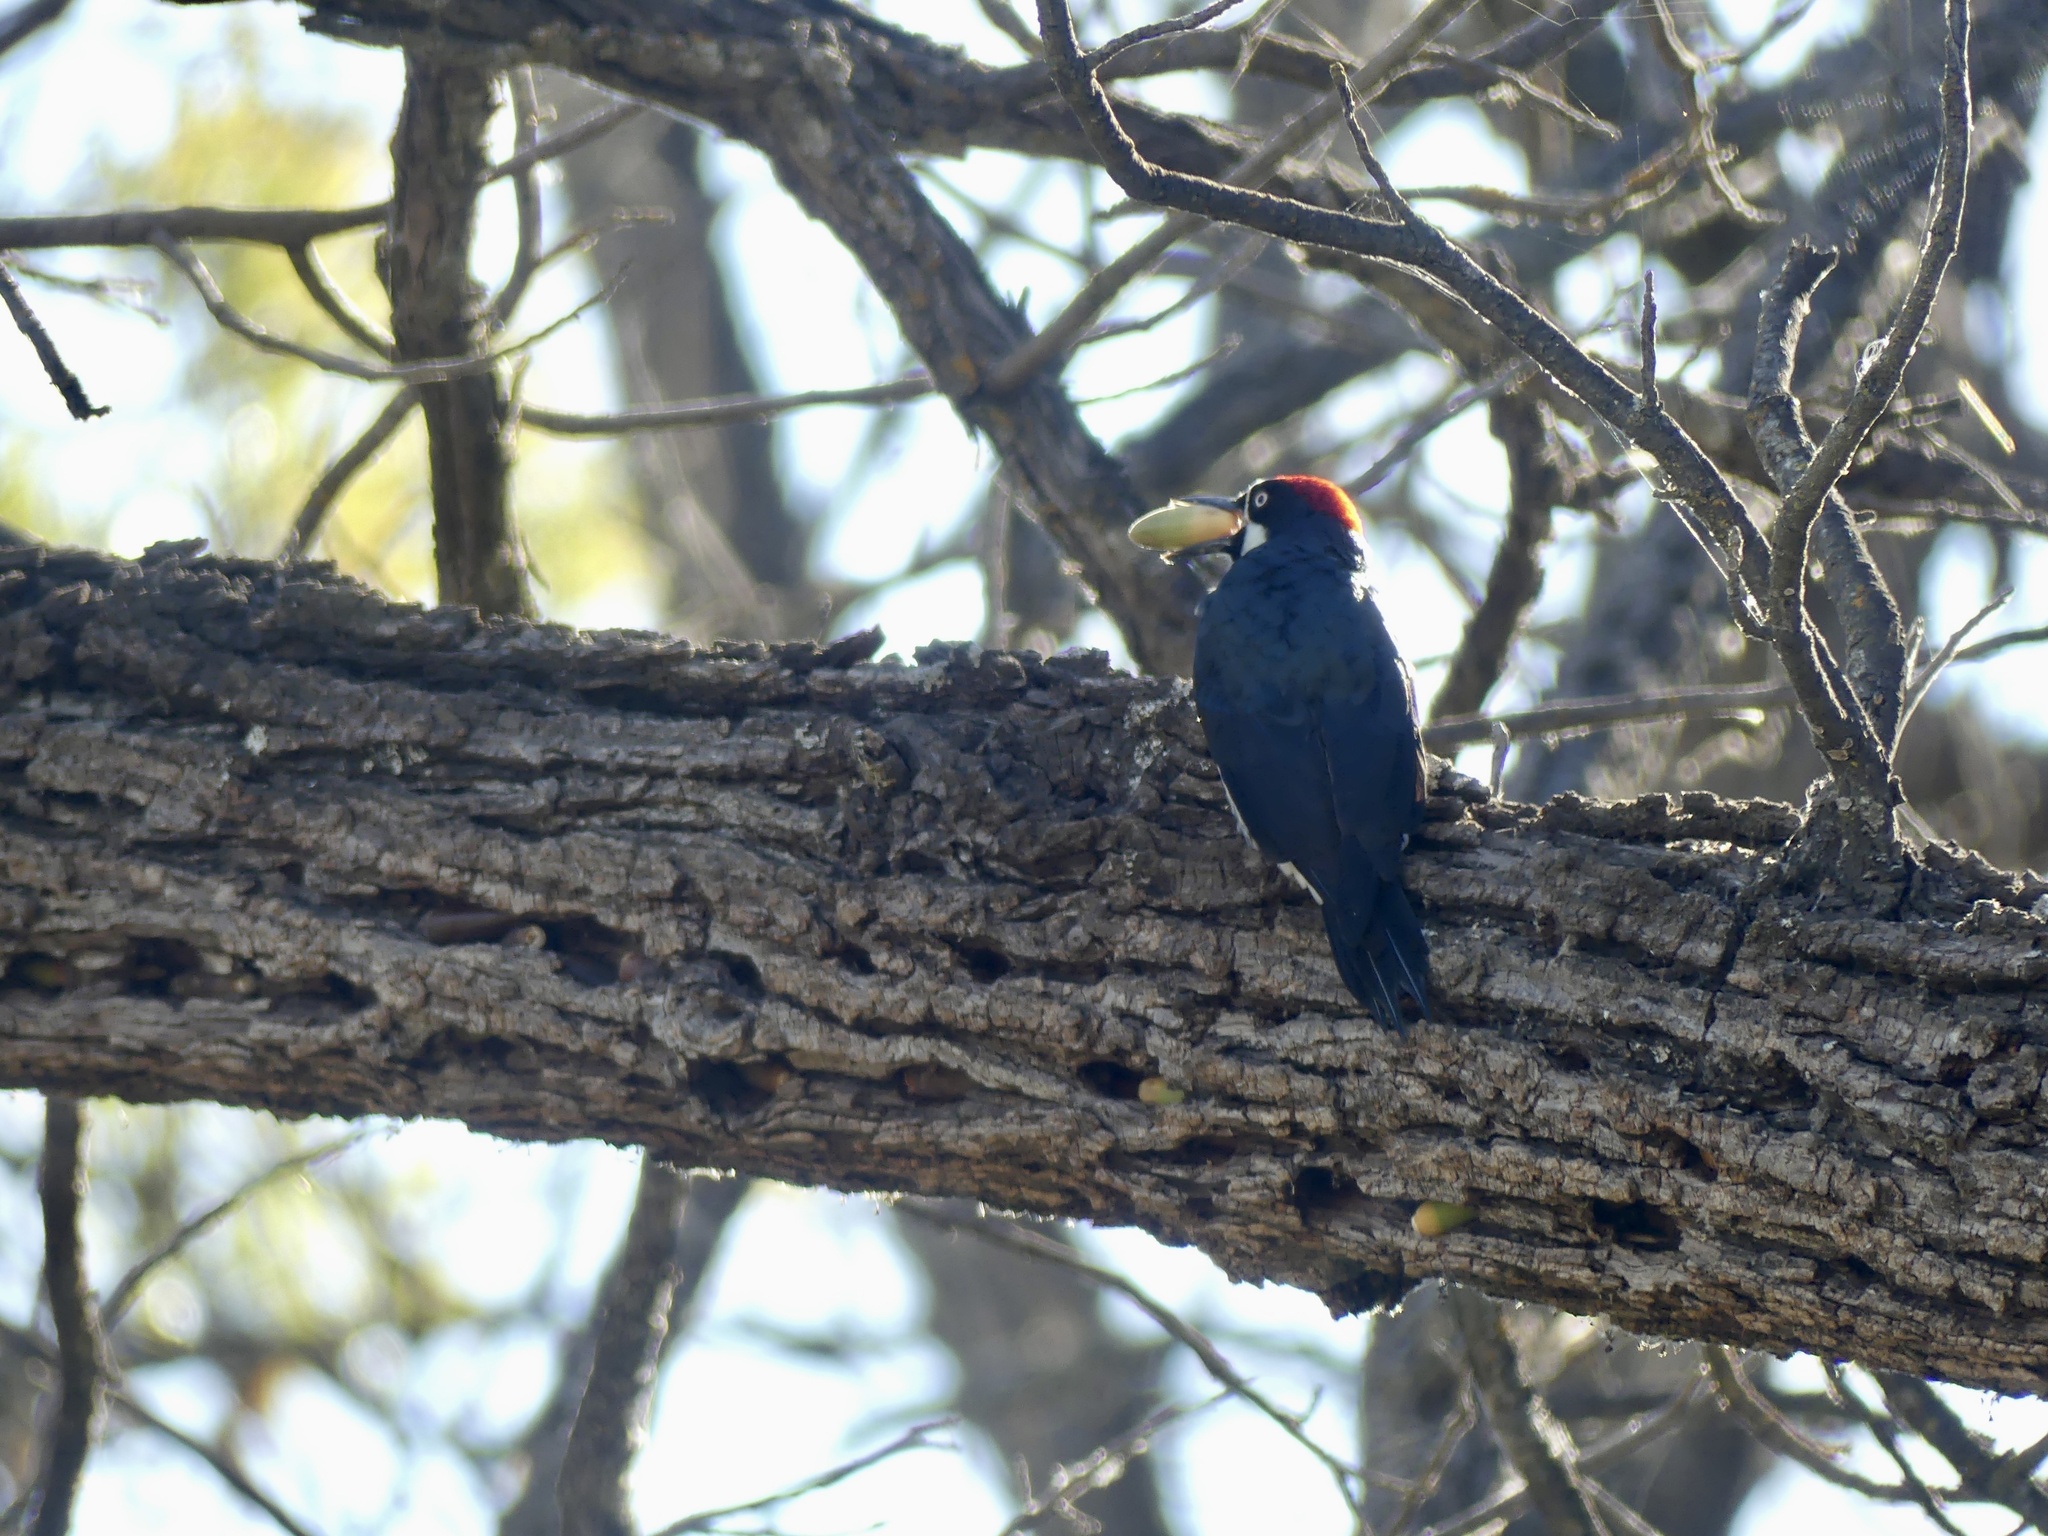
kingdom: Animalia
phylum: Chordata
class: Aves
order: Piciformes
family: Picidae
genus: Melanerpes
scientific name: Melanerpes formicivorus
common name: Acorn woodpecker
